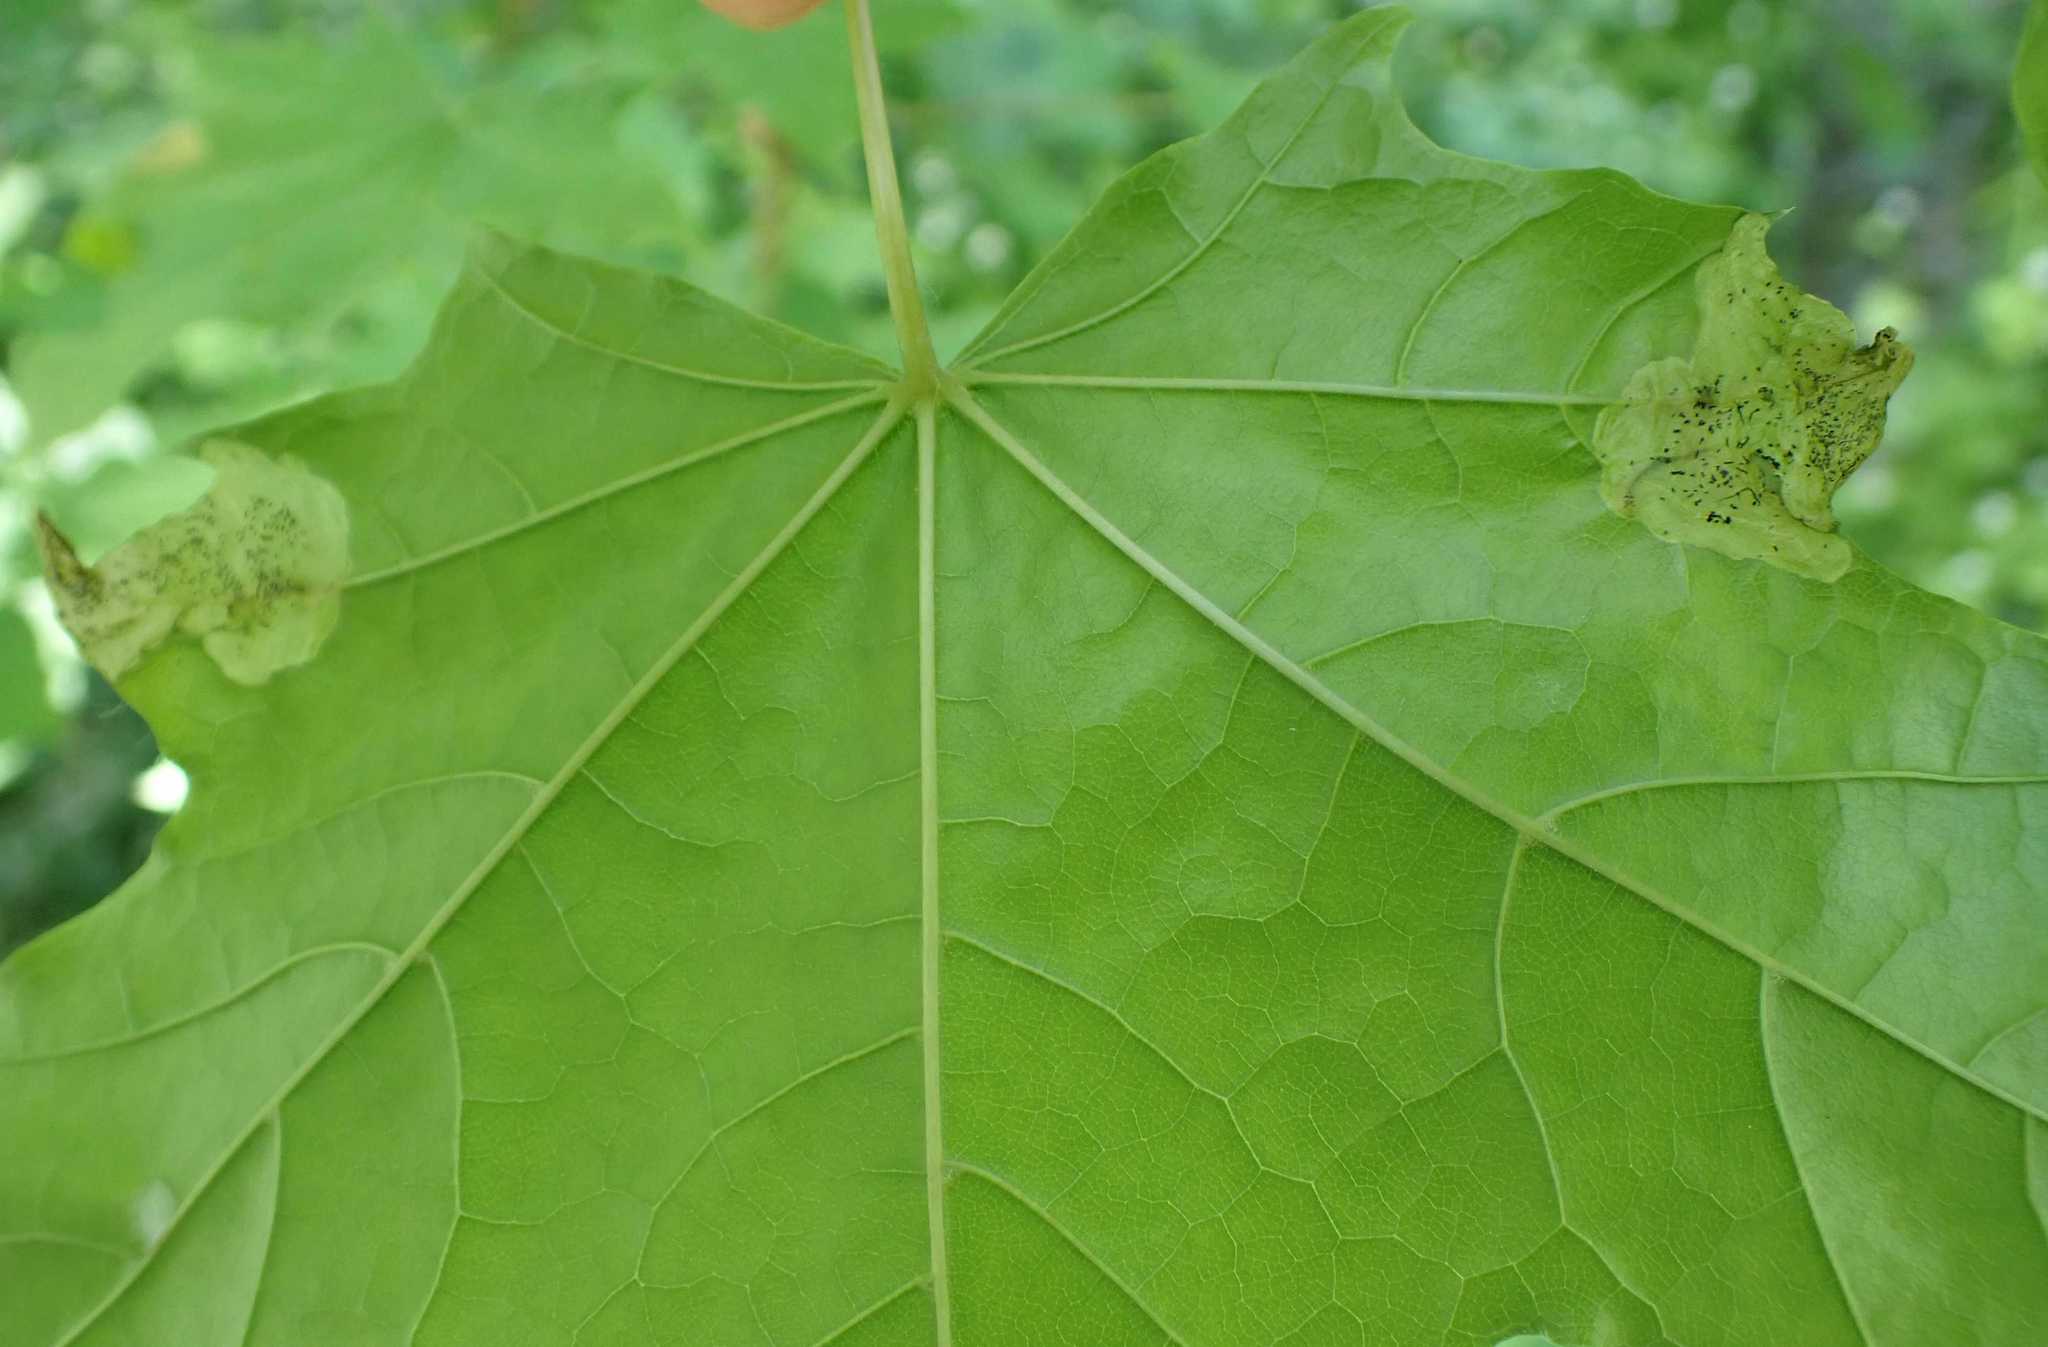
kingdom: Animalia
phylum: Arthropoda
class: Insecta
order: Hymenoptera
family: Tenthredinidae
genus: Hinatara
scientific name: Hinatara recta
